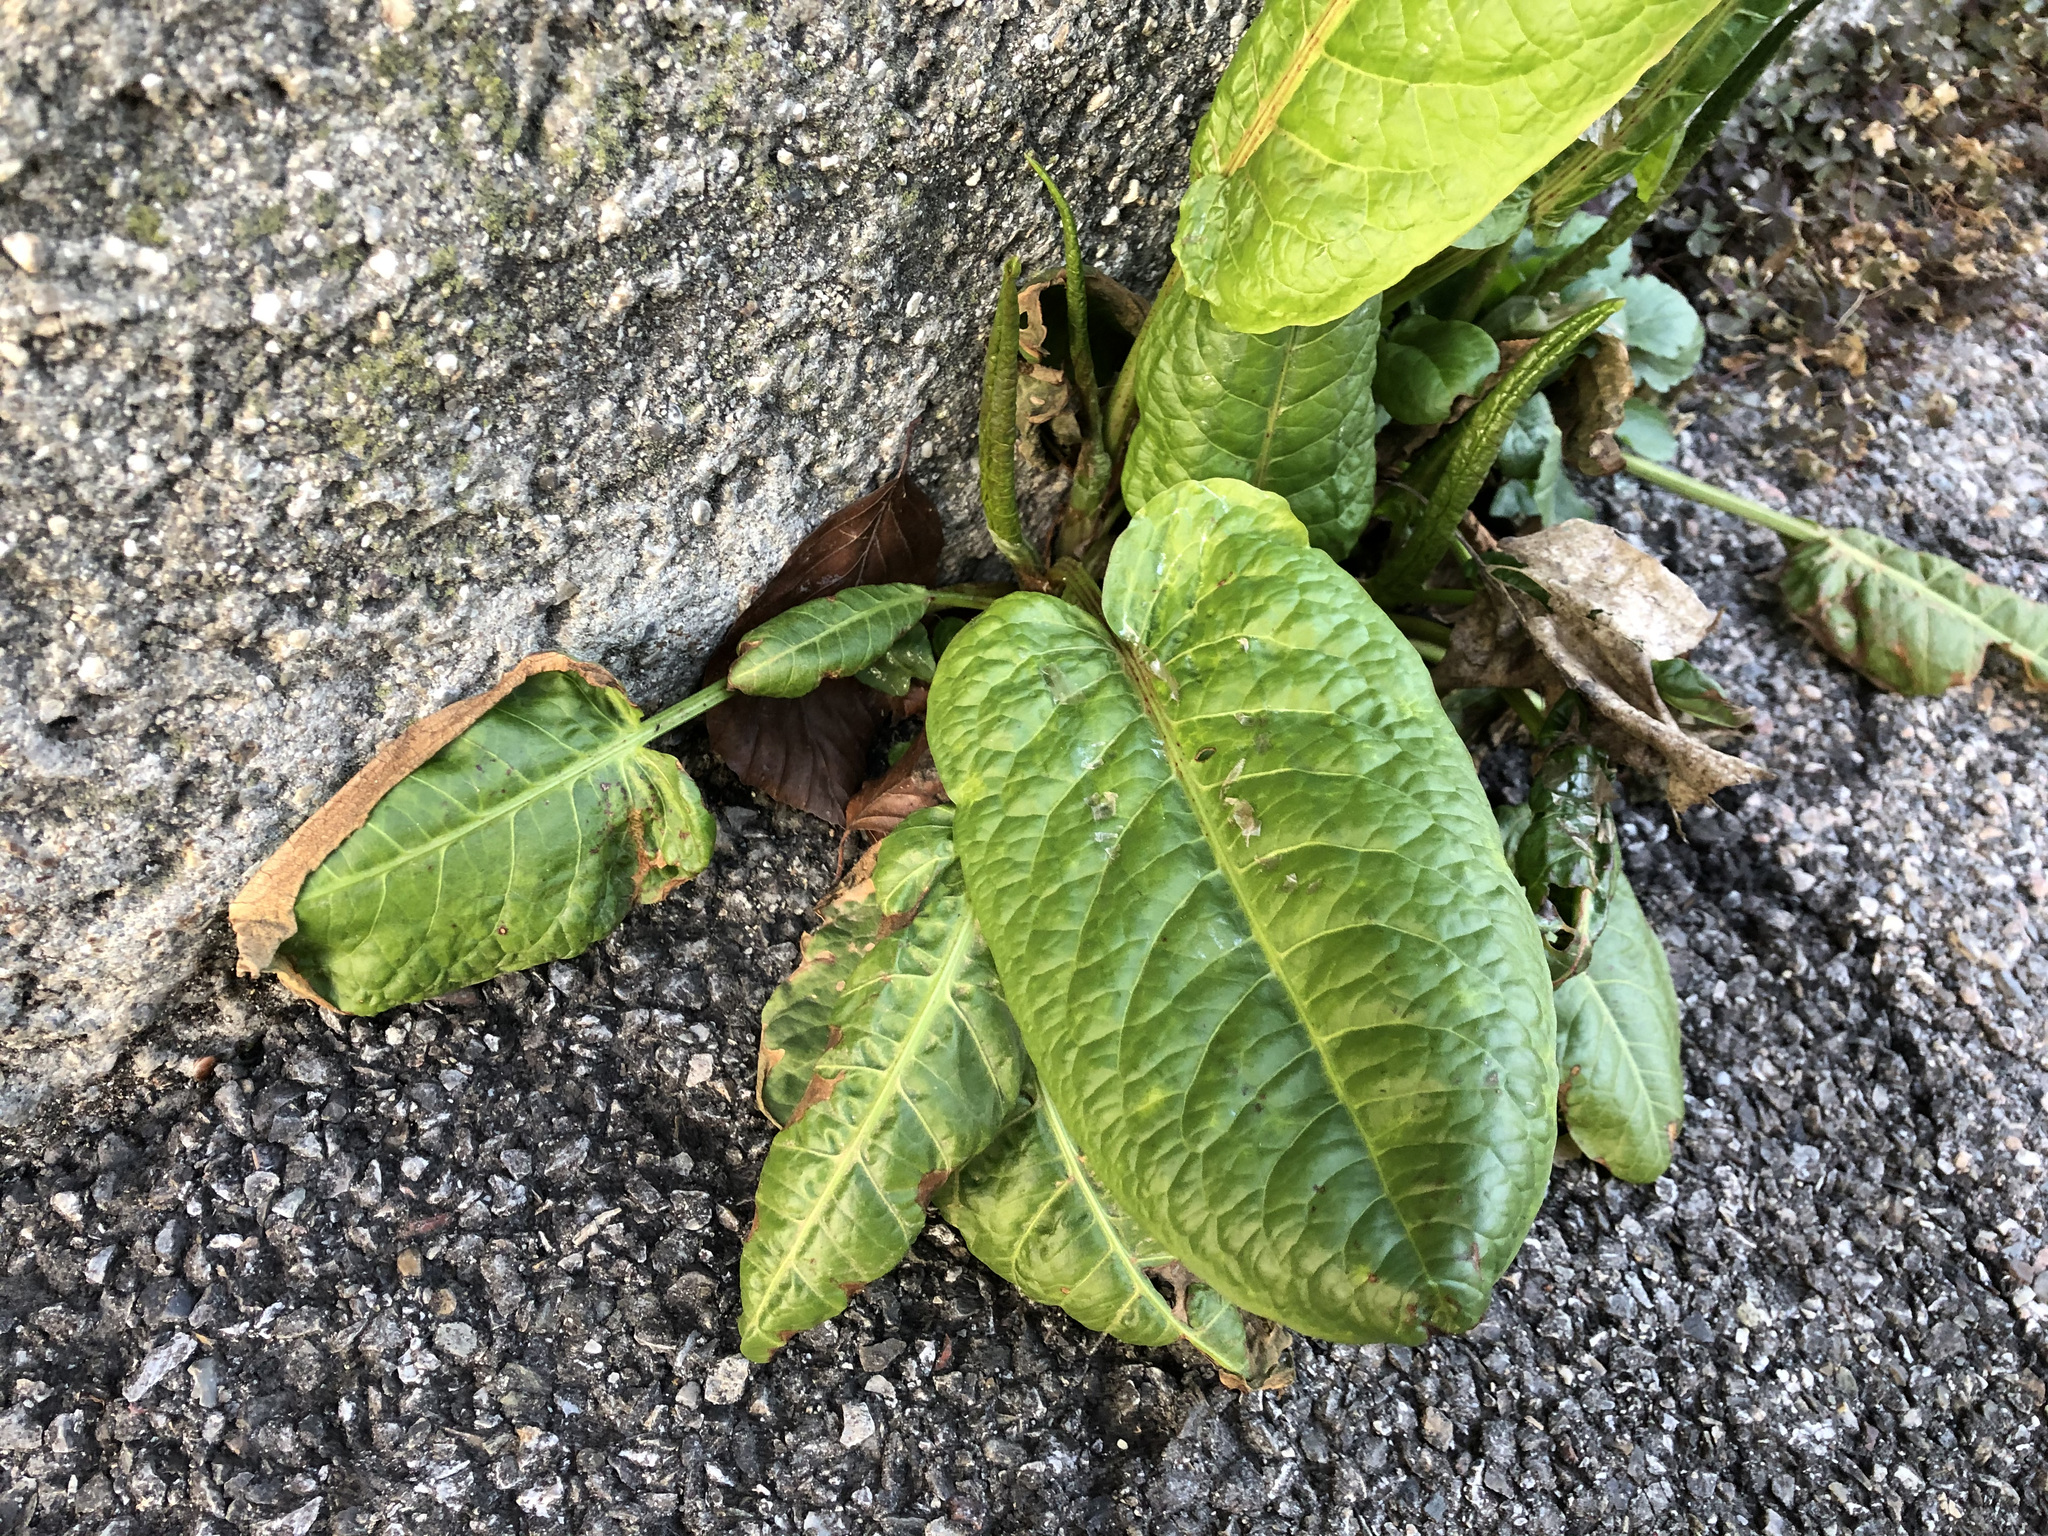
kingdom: Plantae
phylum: Tracheophyta
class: Magnoliopsida
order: Caryophyllales
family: Polygonaceae
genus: Rumex
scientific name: Rumex obtusifolius
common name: Bitter dock
